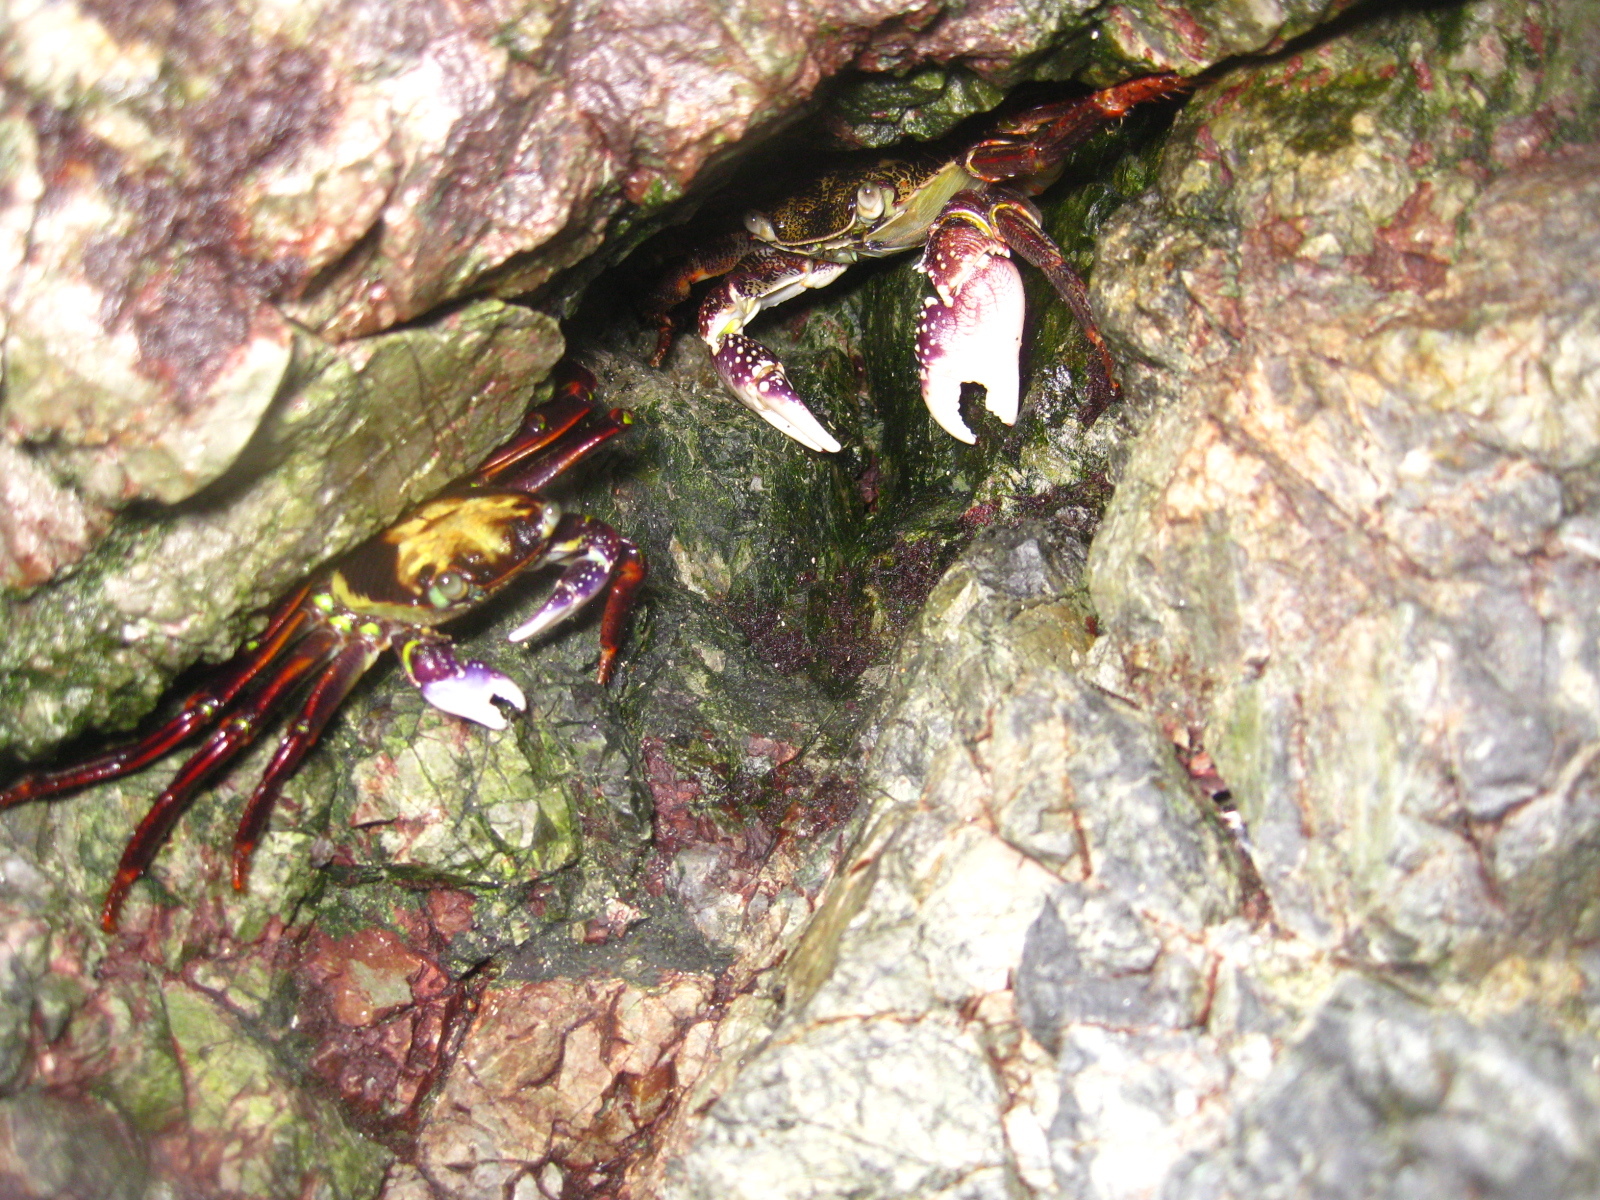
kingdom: Animalia
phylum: Arthropoda
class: Malacostraca
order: Decapoda
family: Grapsidae
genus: Leptograpsus
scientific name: Leptograpsus variegatus
